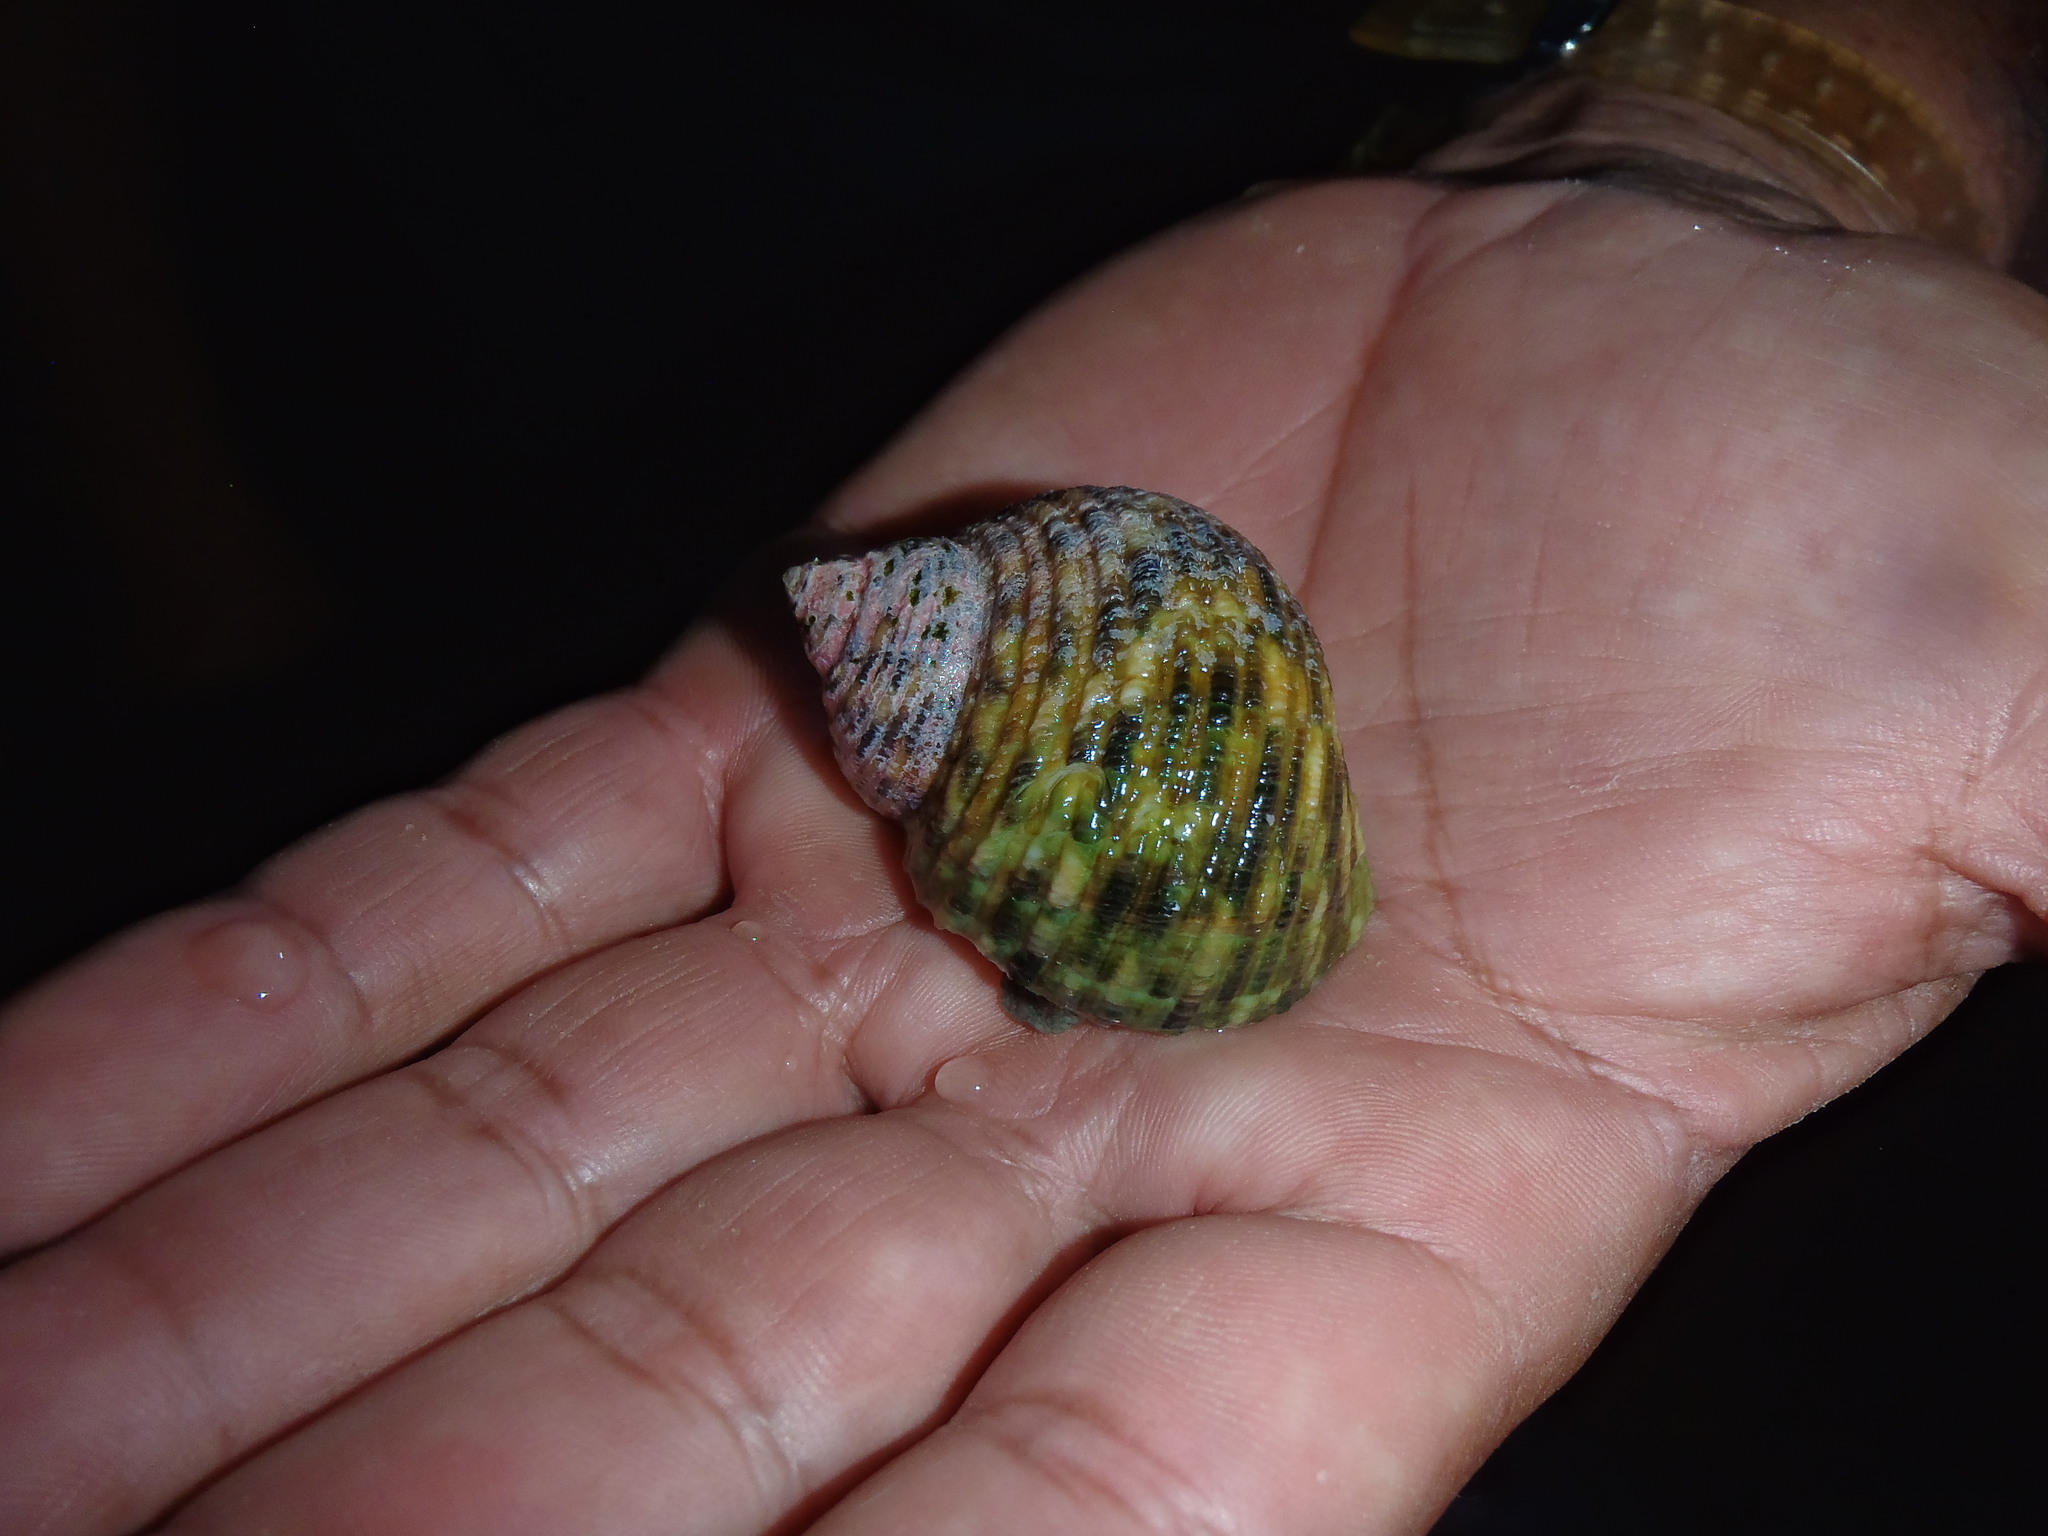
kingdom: Animalia
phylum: Mollusca
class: Gastropoda
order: Trochida
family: Turbinidae
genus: Turbo
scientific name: Turbo setosus
